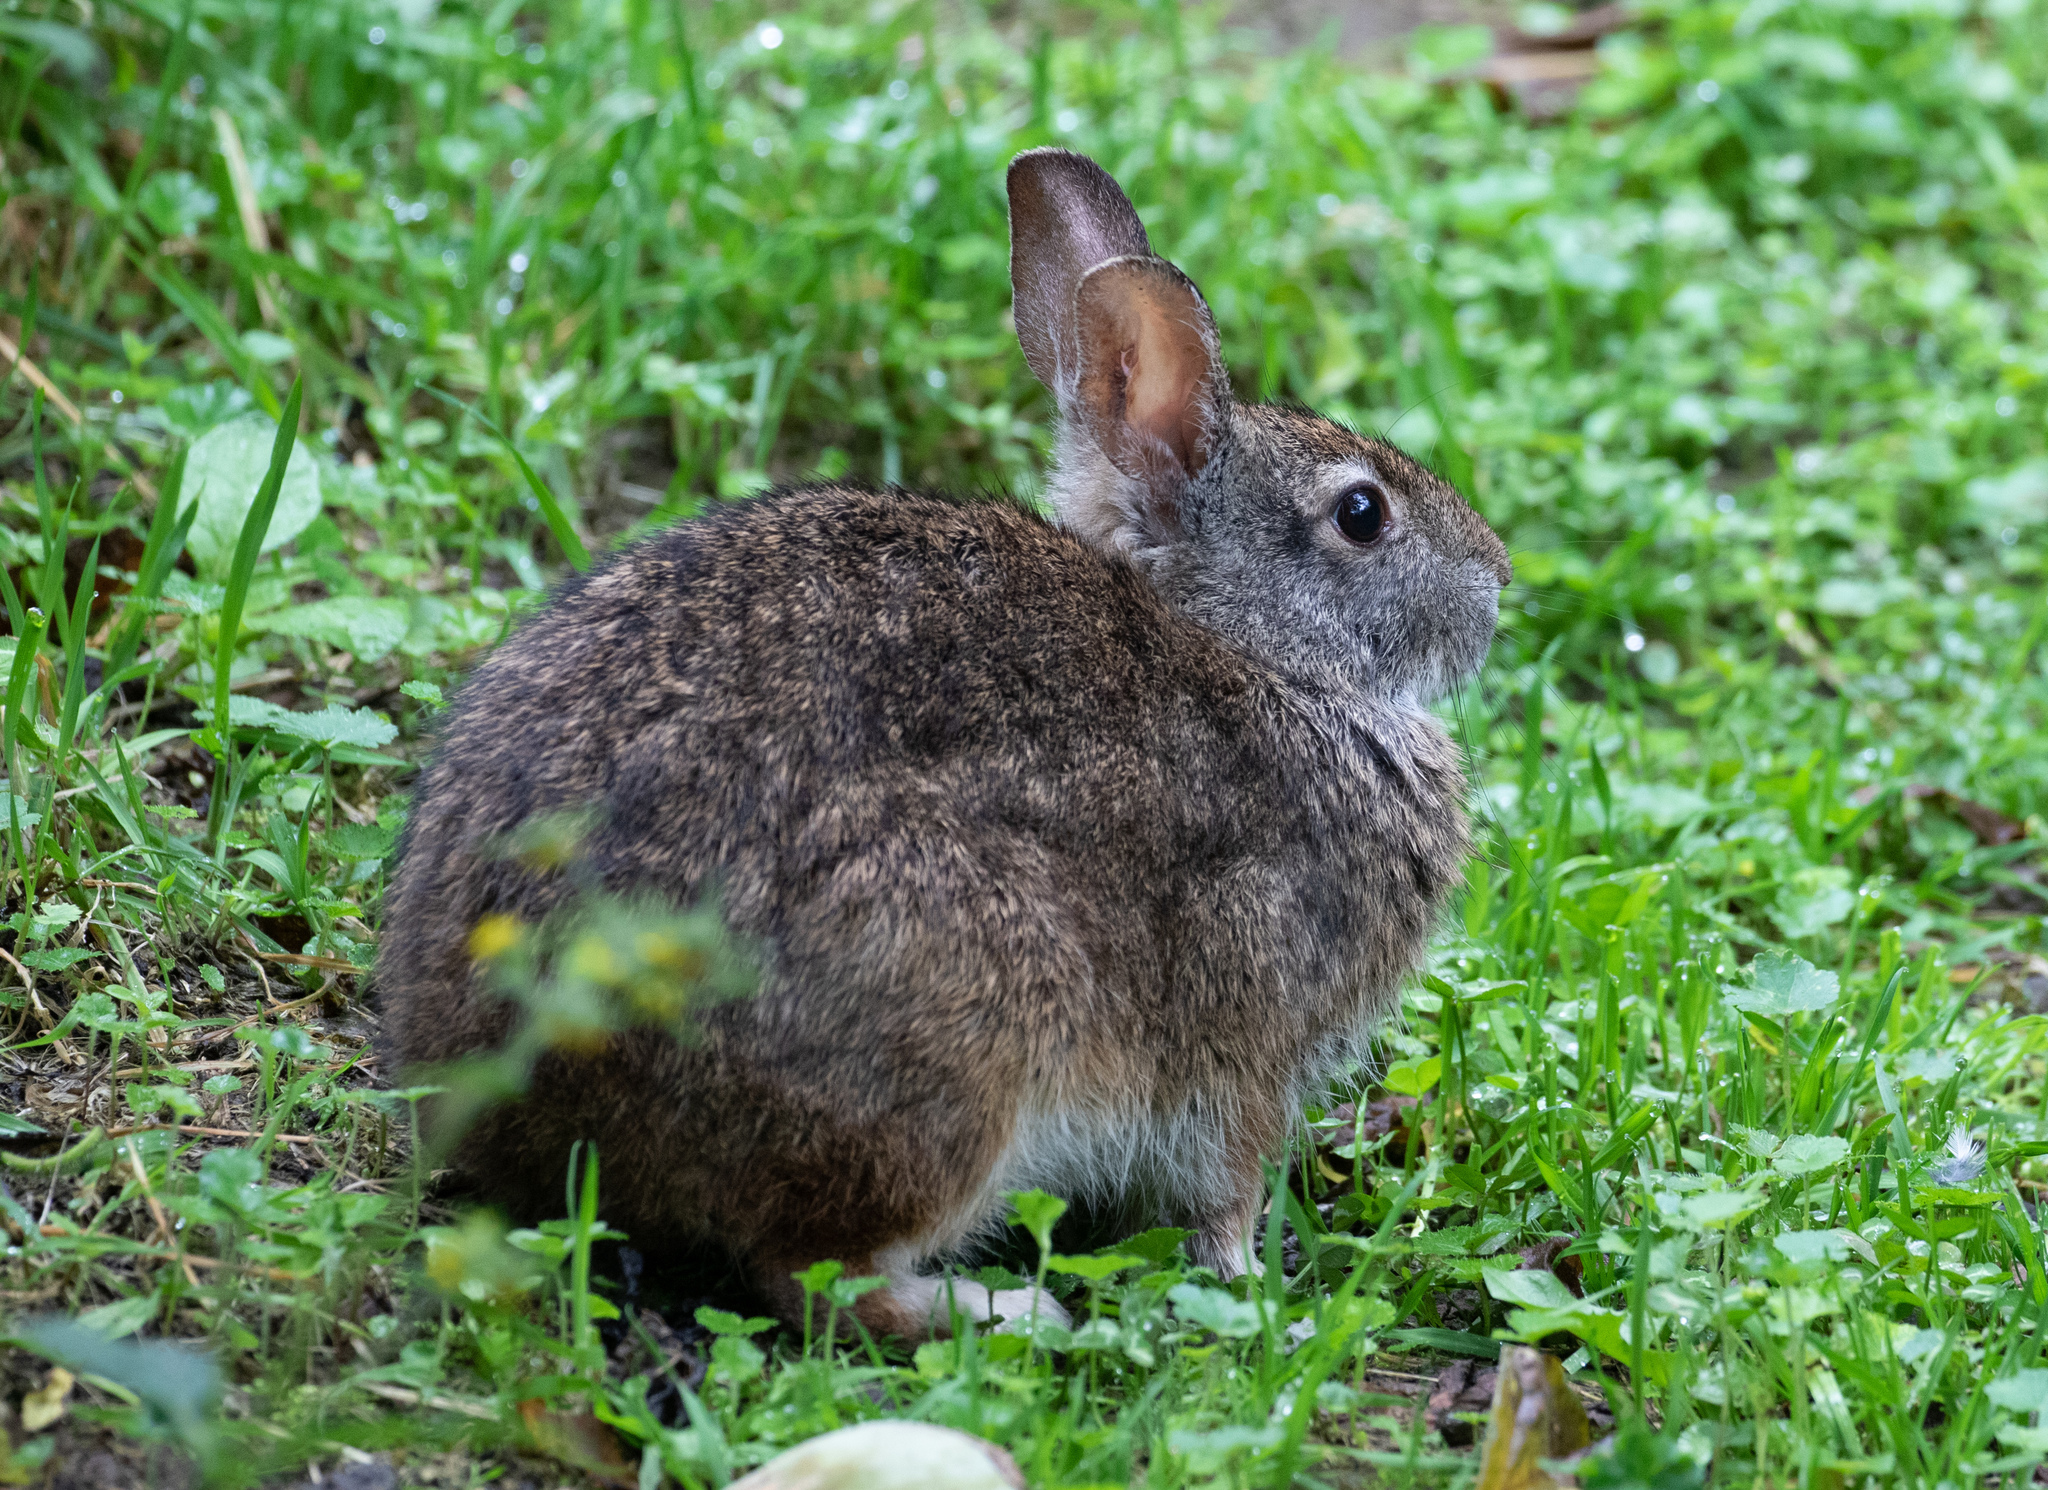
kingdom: Animalia
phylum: Chordata
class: Mammalia
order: Lagomorpha
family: Leporidae
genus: Sylvilagus
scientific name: Sylvilagus andinus
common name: Andean cottontail
